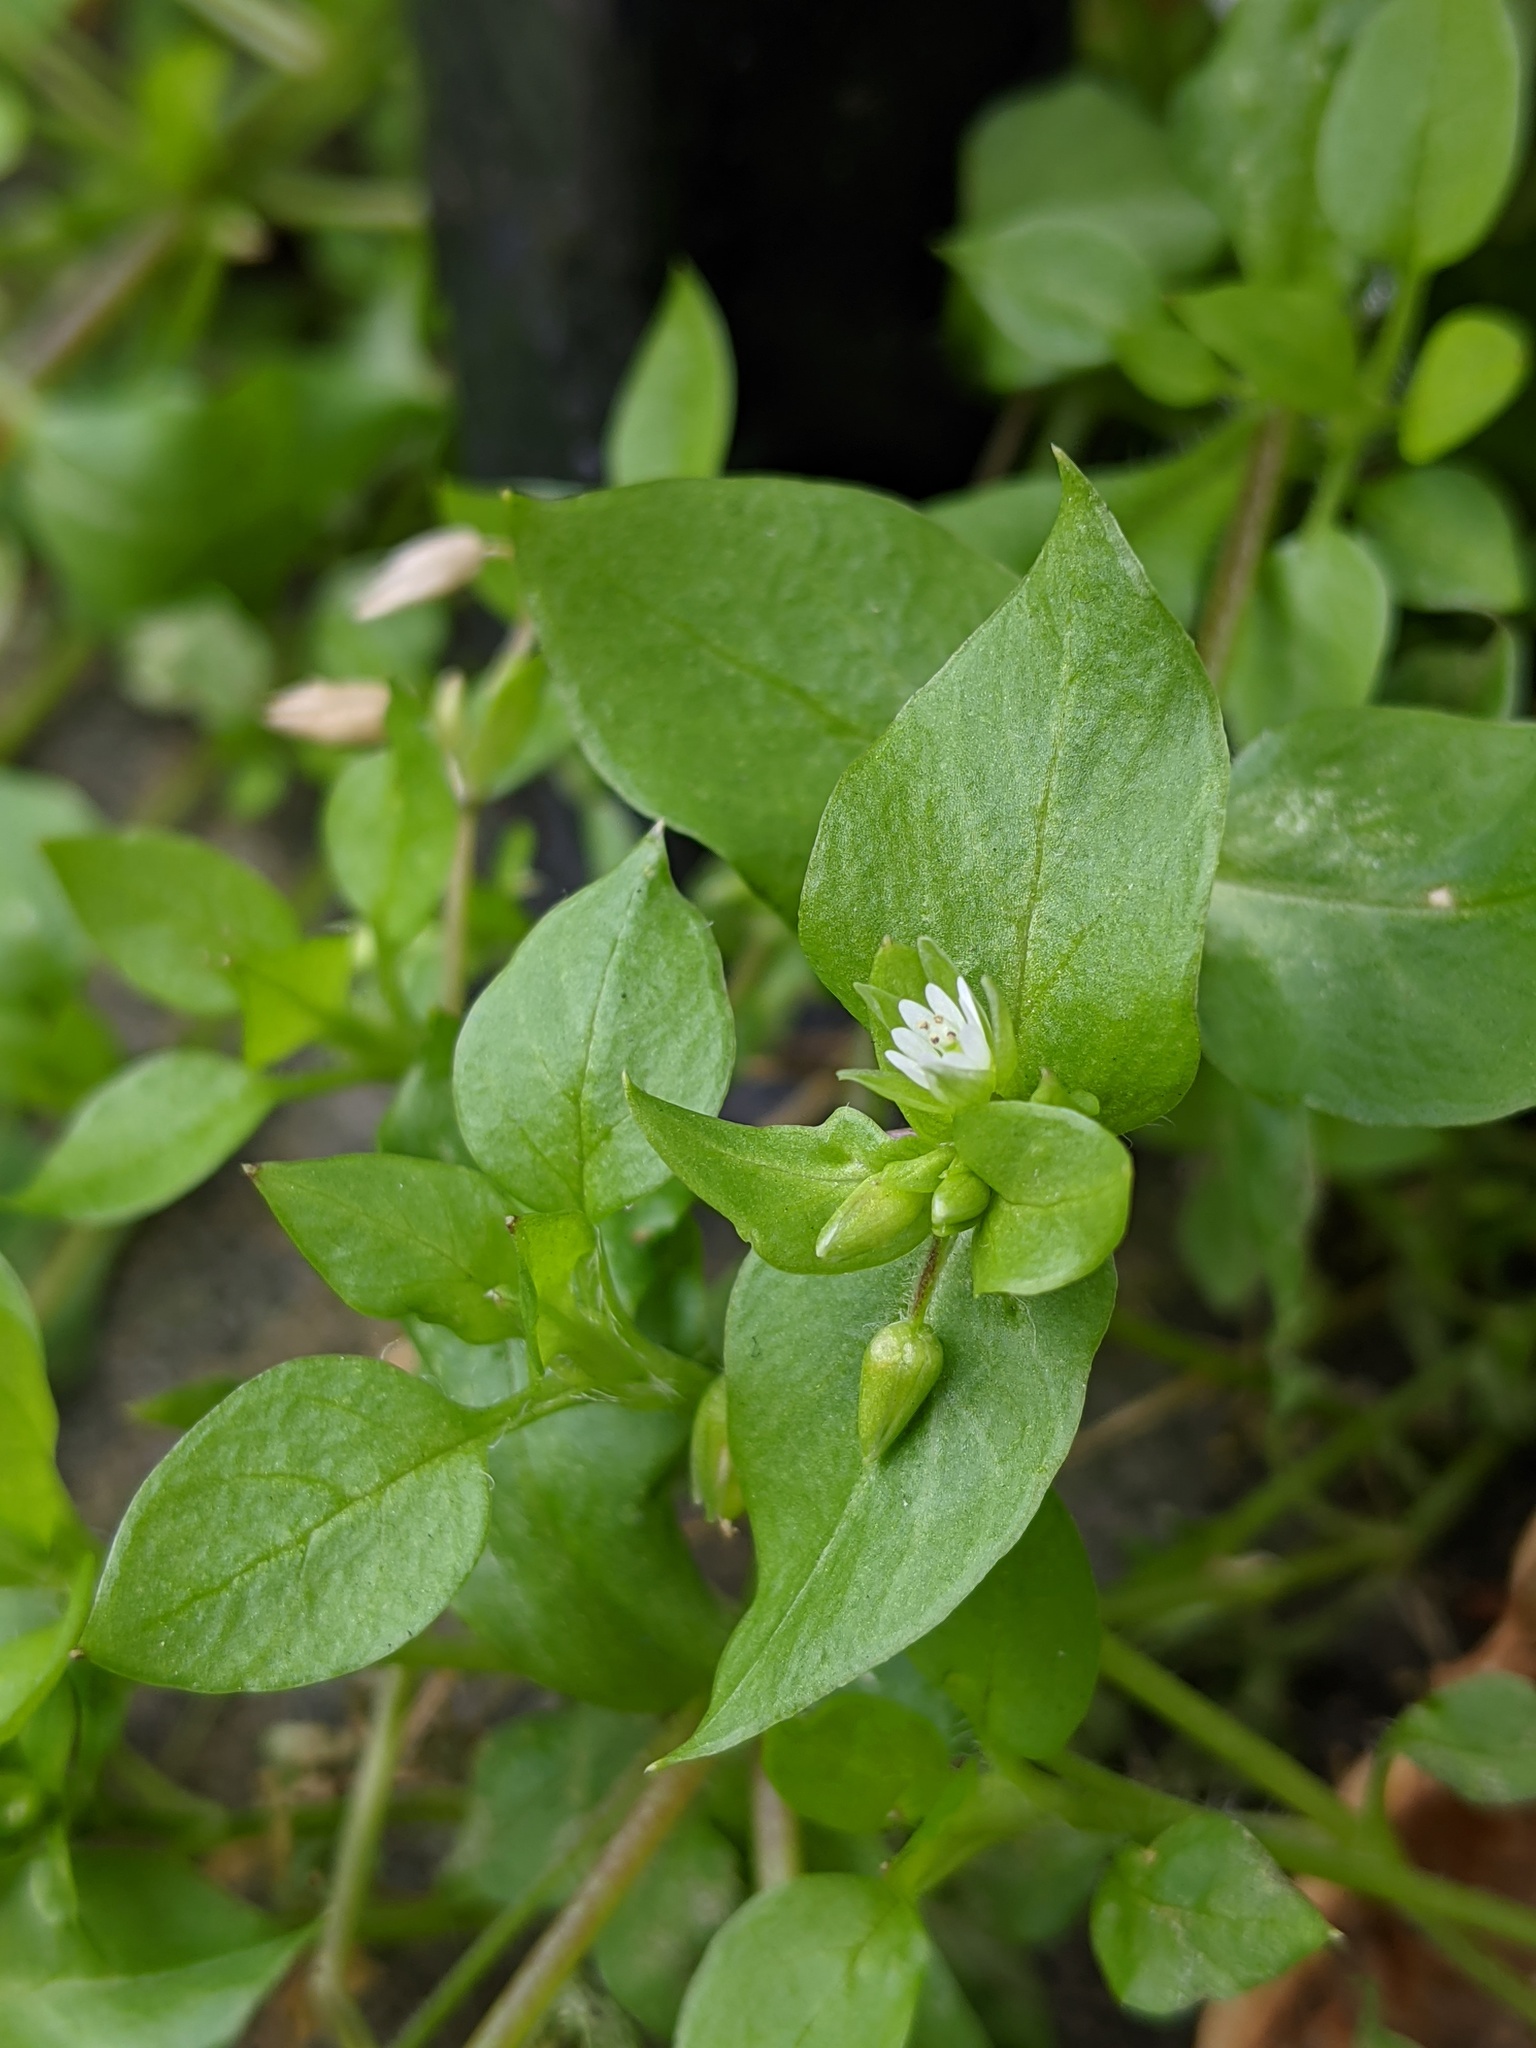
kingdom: Plantae
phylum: Tracheophyta
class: Magnoliopsida
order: Caryophyllales
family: Caryophyllaceae
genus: Stellaria
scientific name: Stellaria media
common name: Common chickweed
